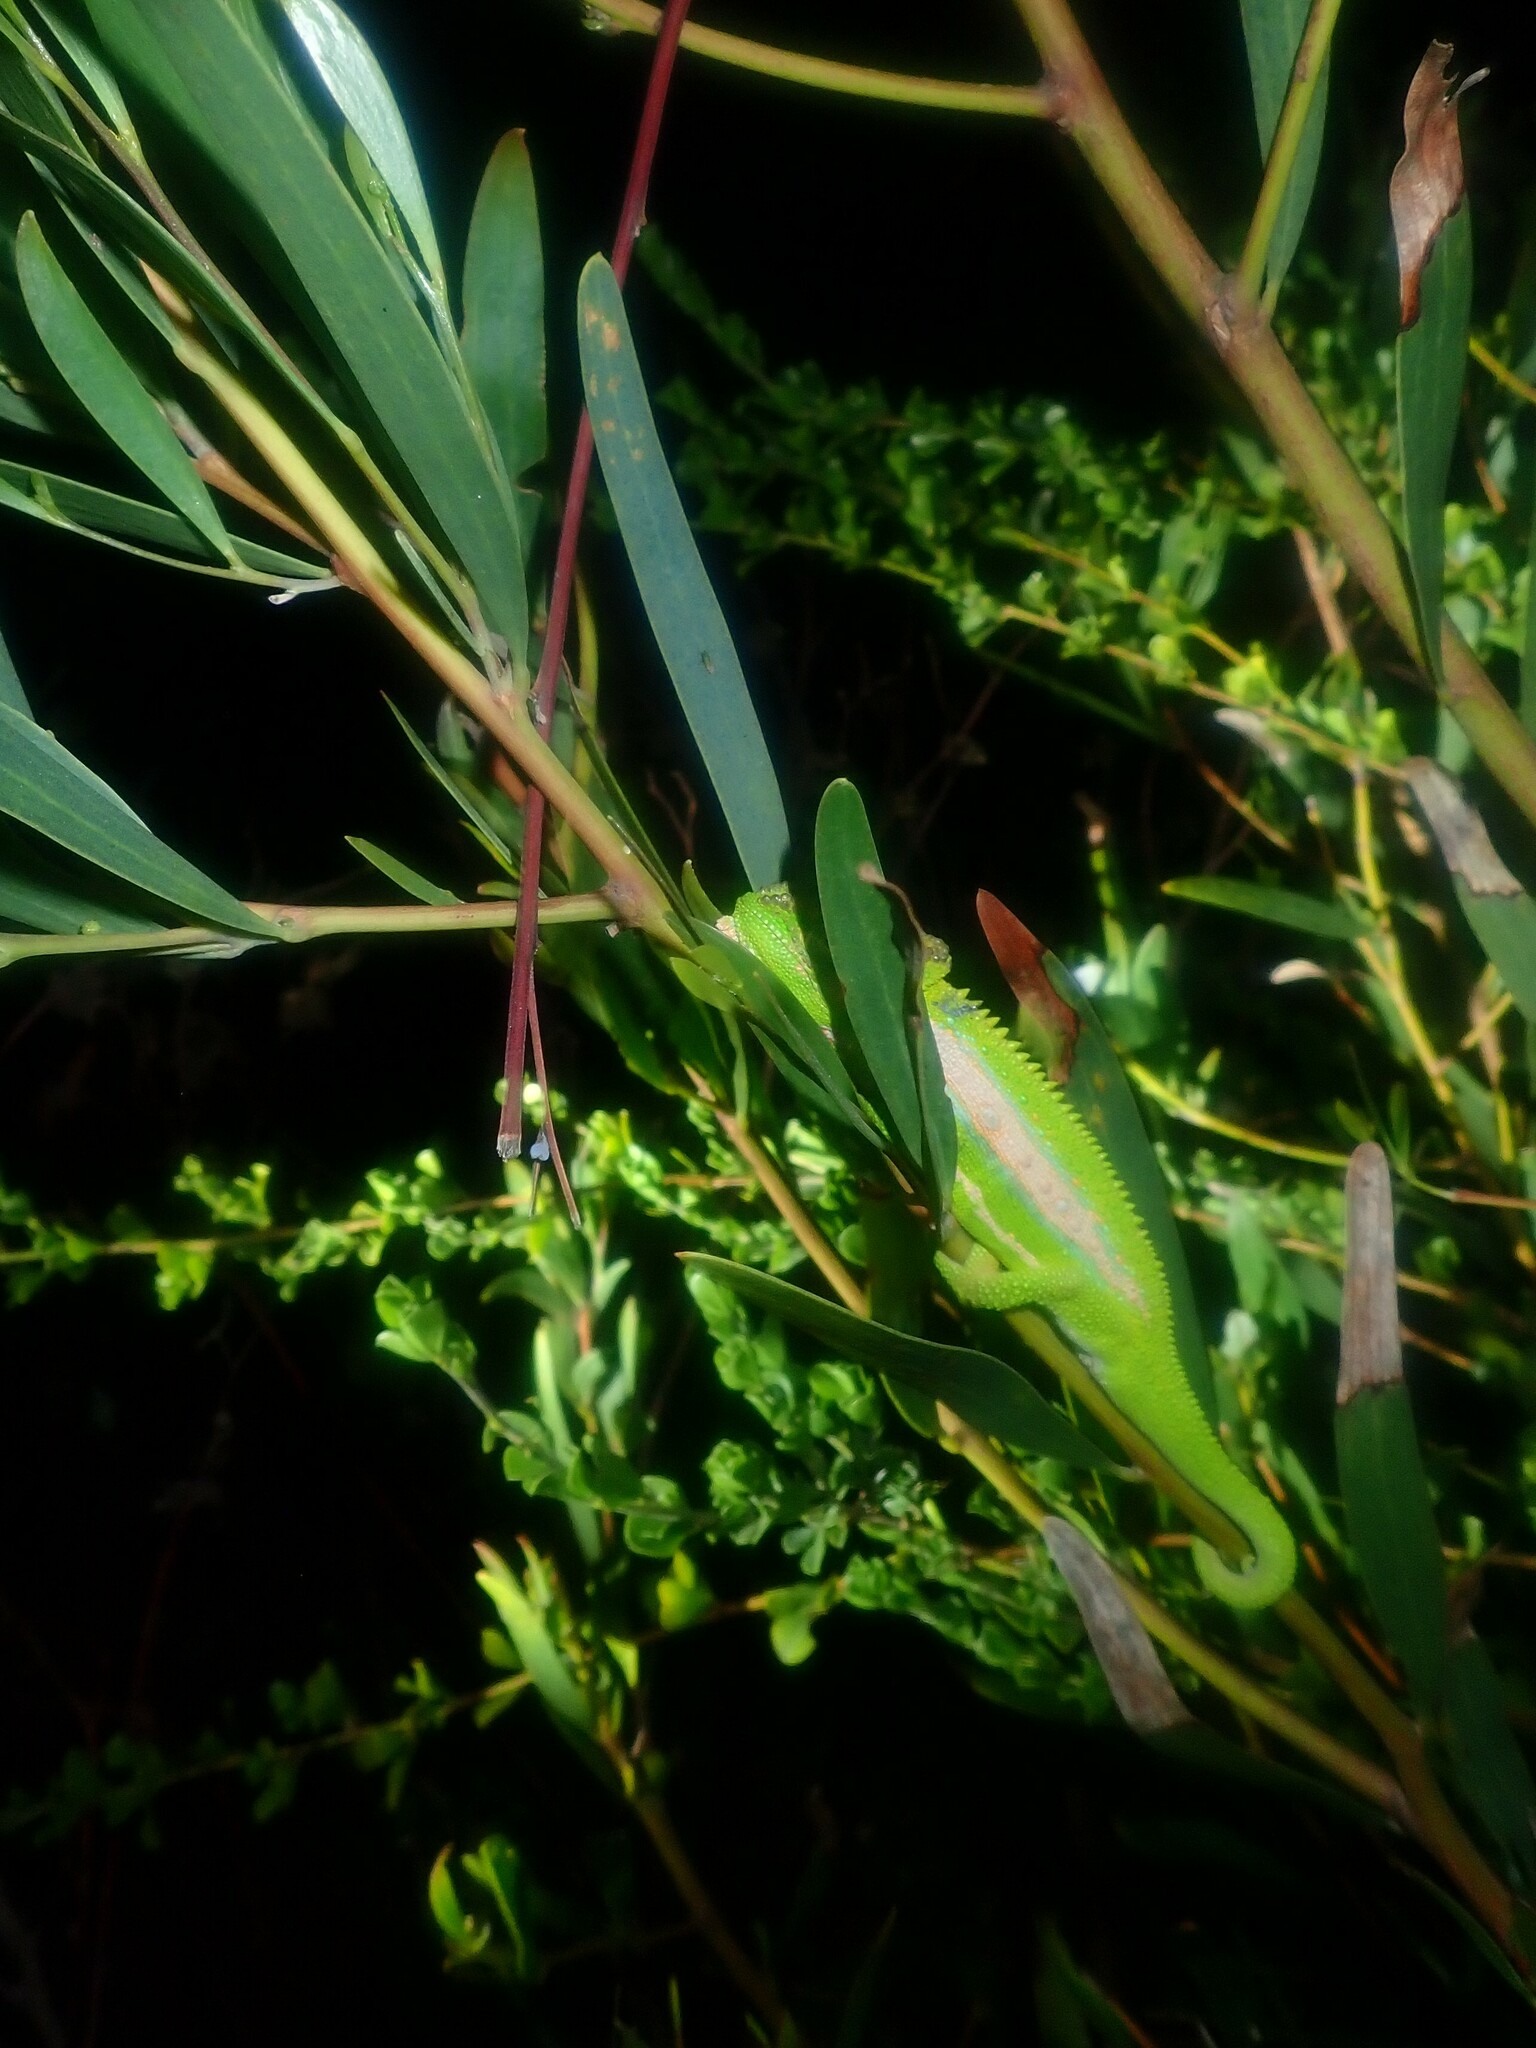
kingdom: Animalia
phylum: Chordata
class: Squamata
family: Chamaeleonidae
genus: Bradypodion
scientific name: Bradypodion pumilum
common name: Cape dwarf chameleon
